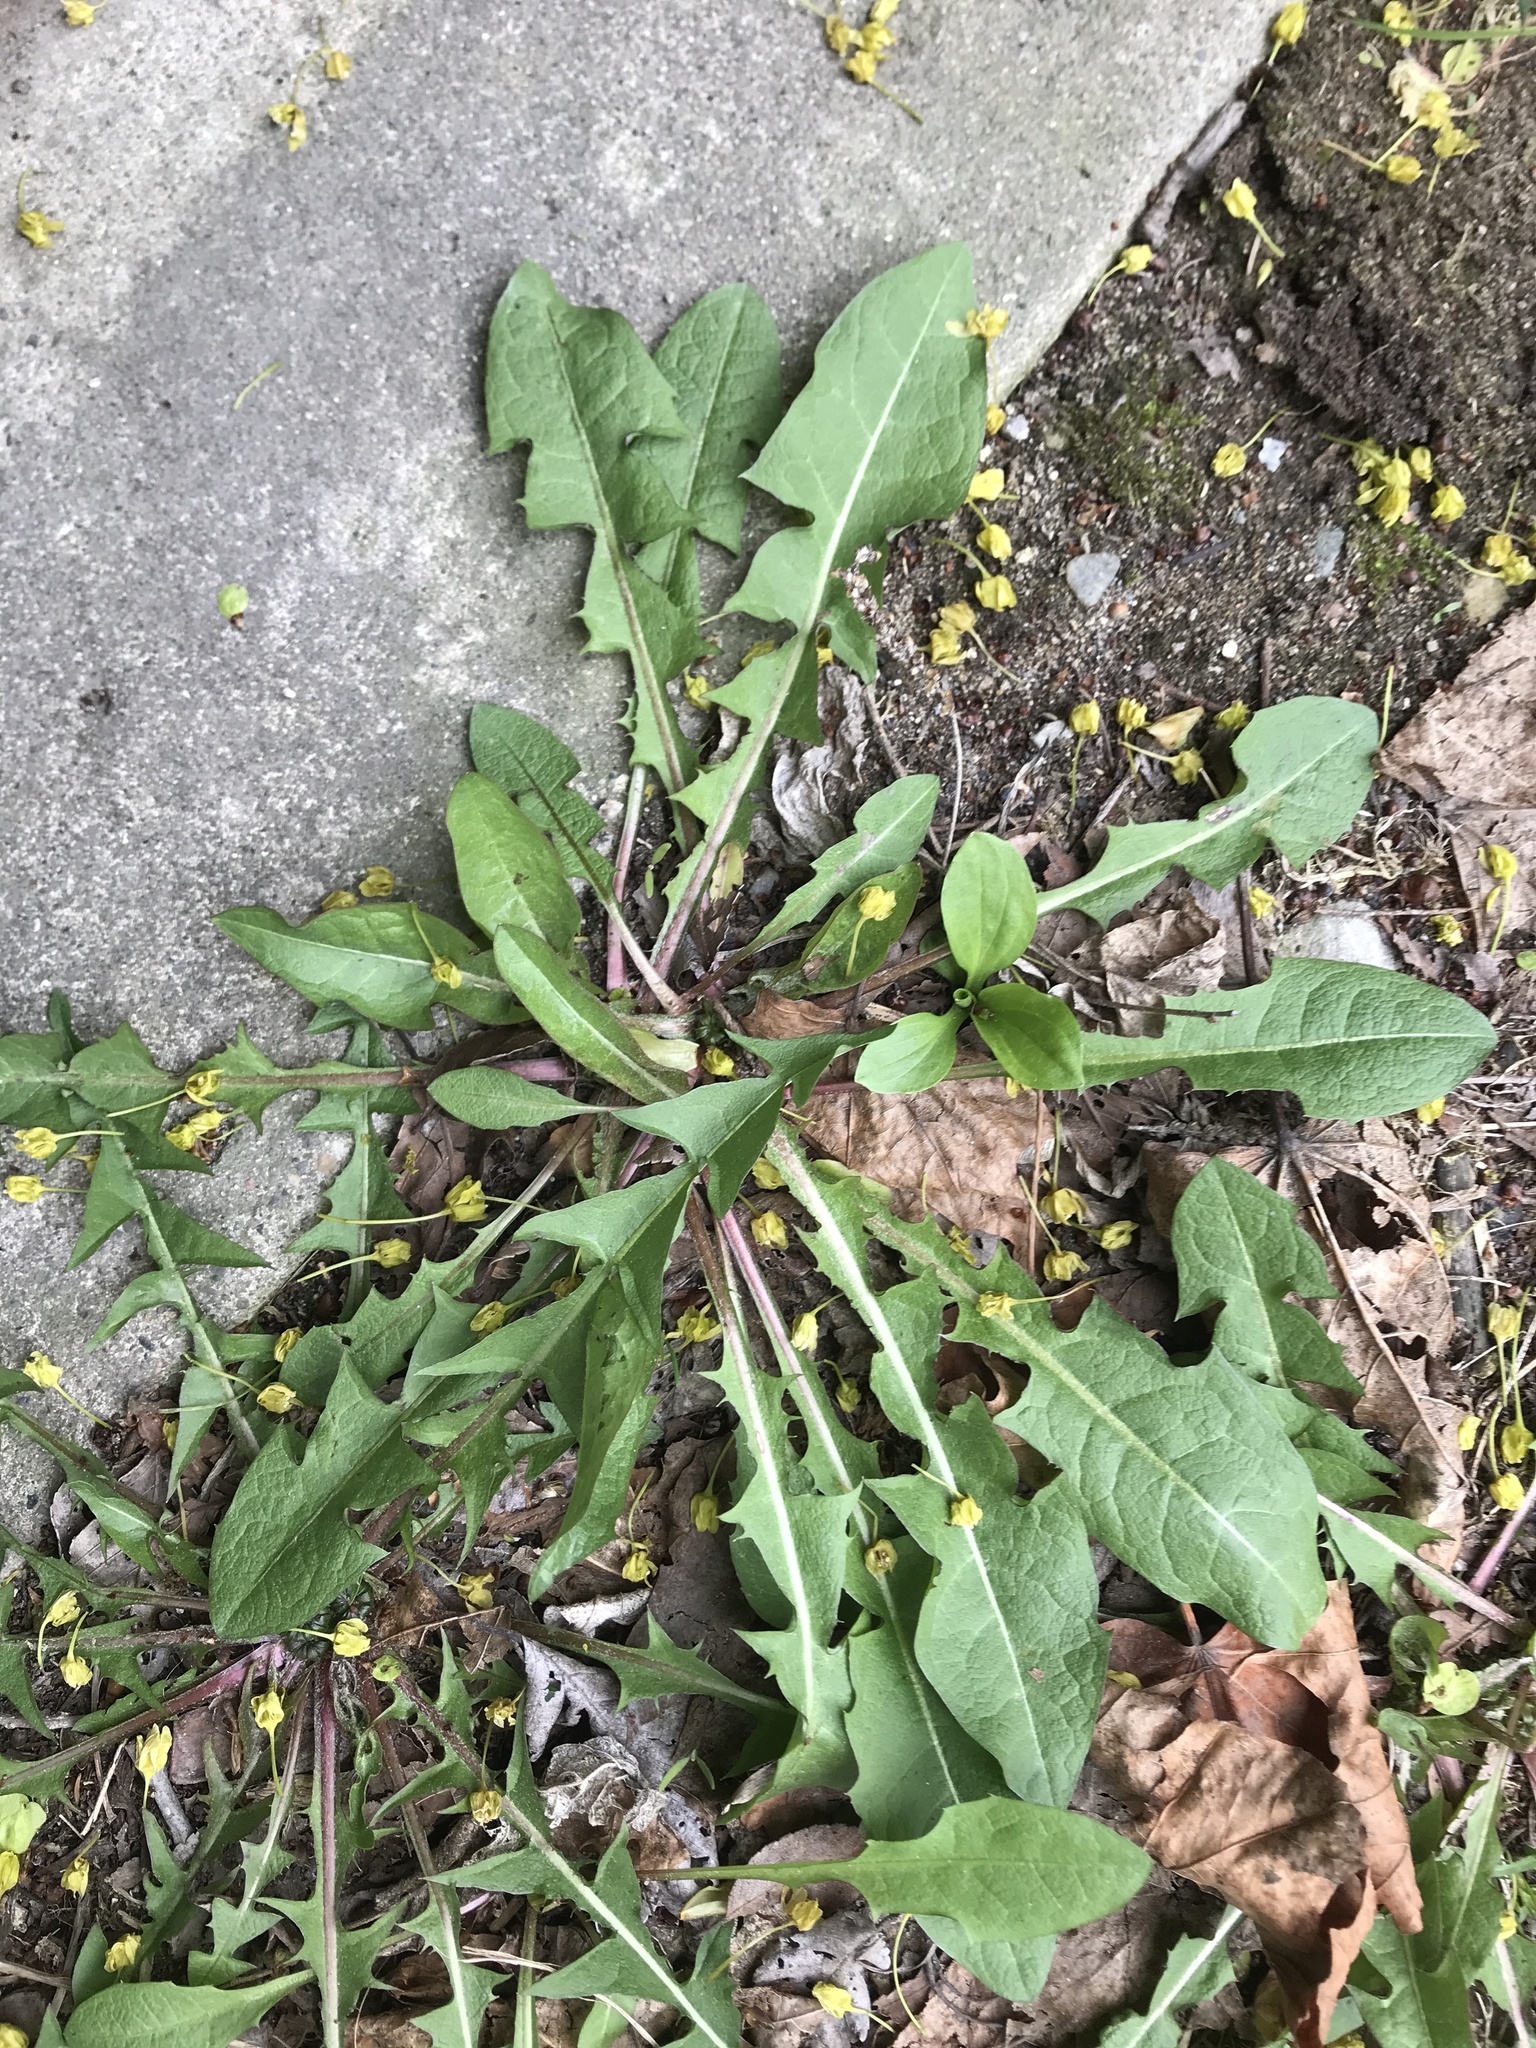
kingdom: Plantae
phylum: Tracheophyta
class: Magnoliopsida
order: Asterales
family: Asteraceae
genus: Taraxacum
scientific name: Taraxacum officinale
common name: Common dandelion
